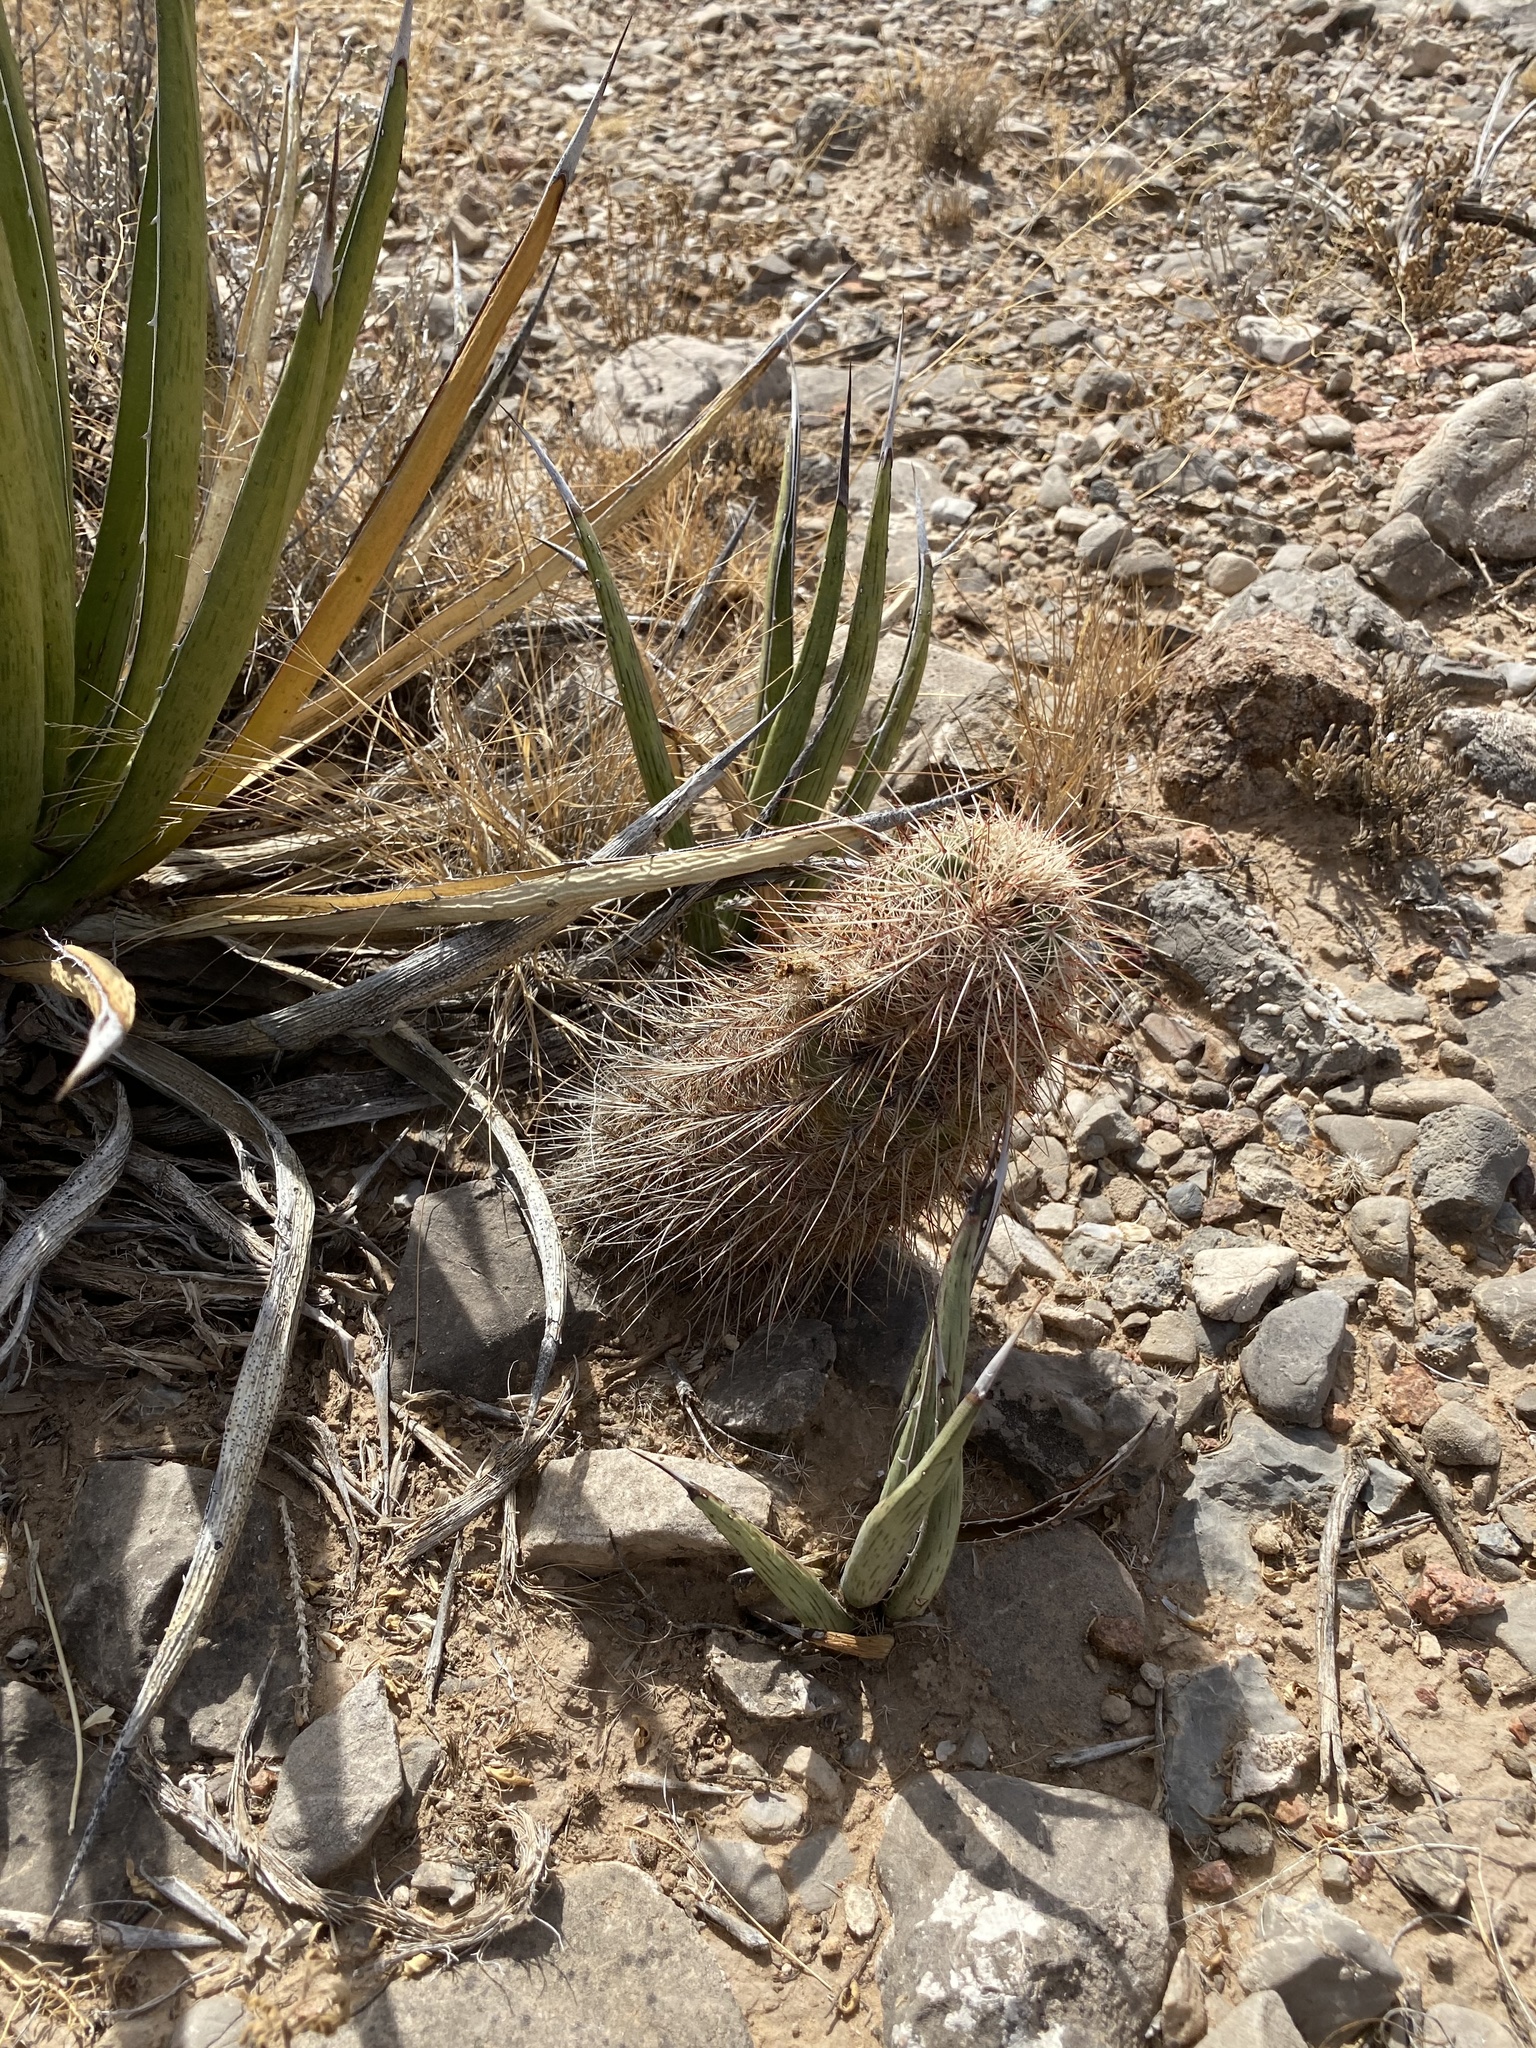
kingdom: Plantae
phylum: Tracheophyta
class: Magnoliopsida
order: Caryophyllales
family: Cactaceae
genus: Echinocereus
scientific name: Echinocereus viridiflorus
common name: Nylon hedgehog cactus
